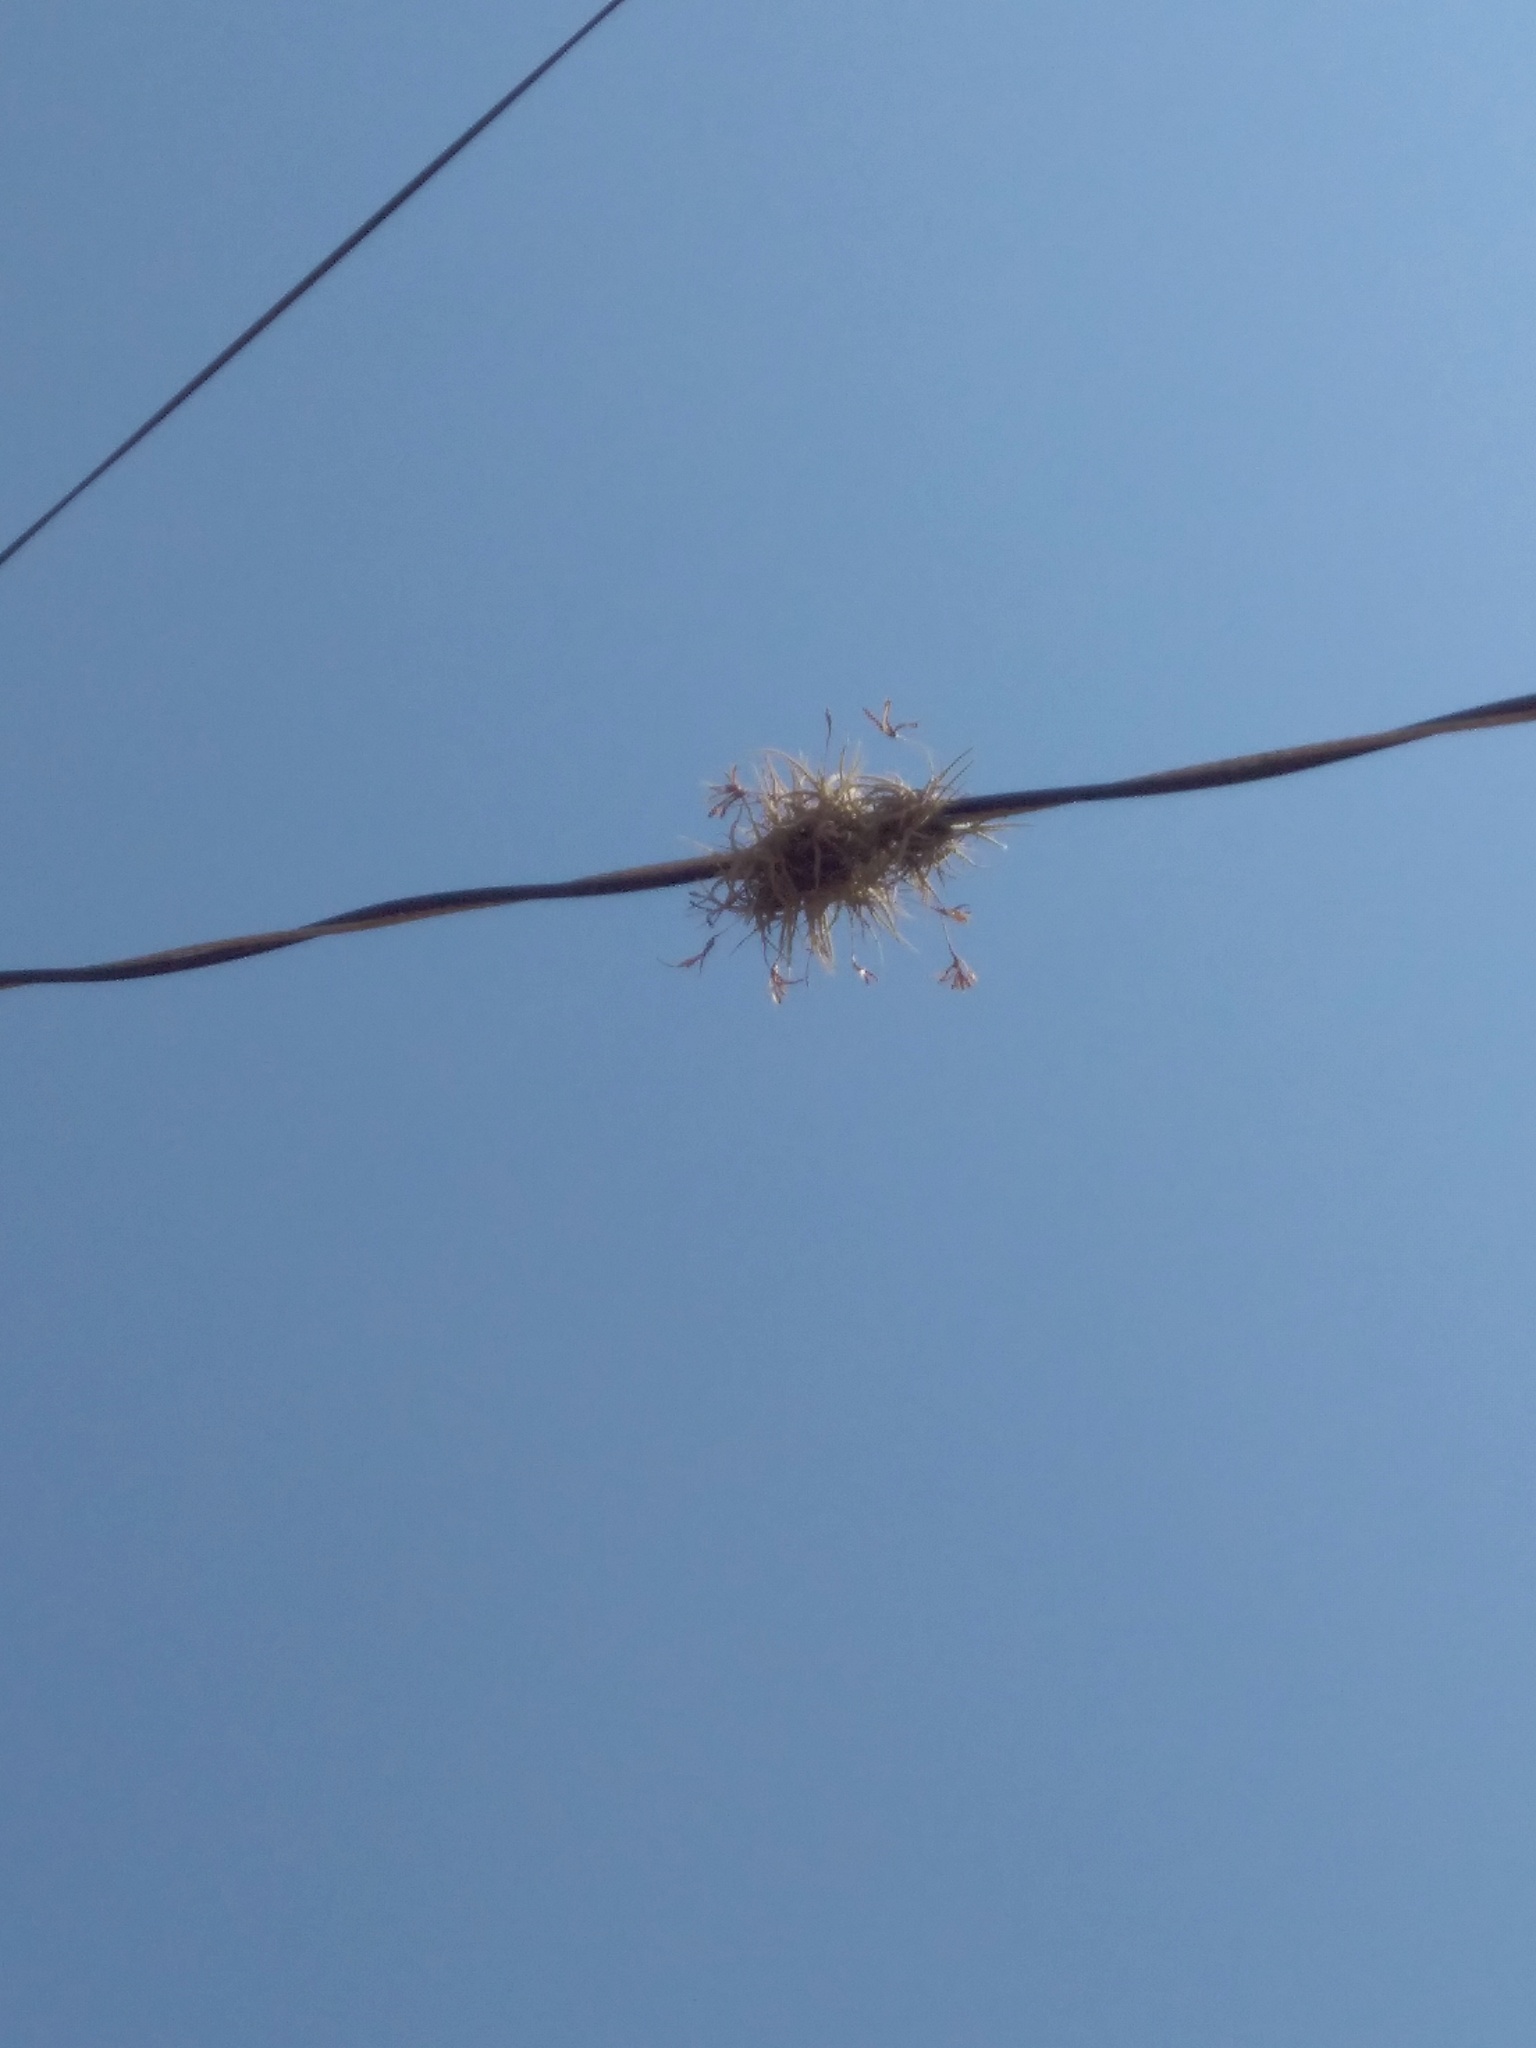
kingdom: Plantae
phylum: Tracheophyta
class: Liliopsida
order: Poales
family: Bromeliaceae
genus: Tillandsia
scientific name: Tillandsia recurvata
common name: Small ballmoss
